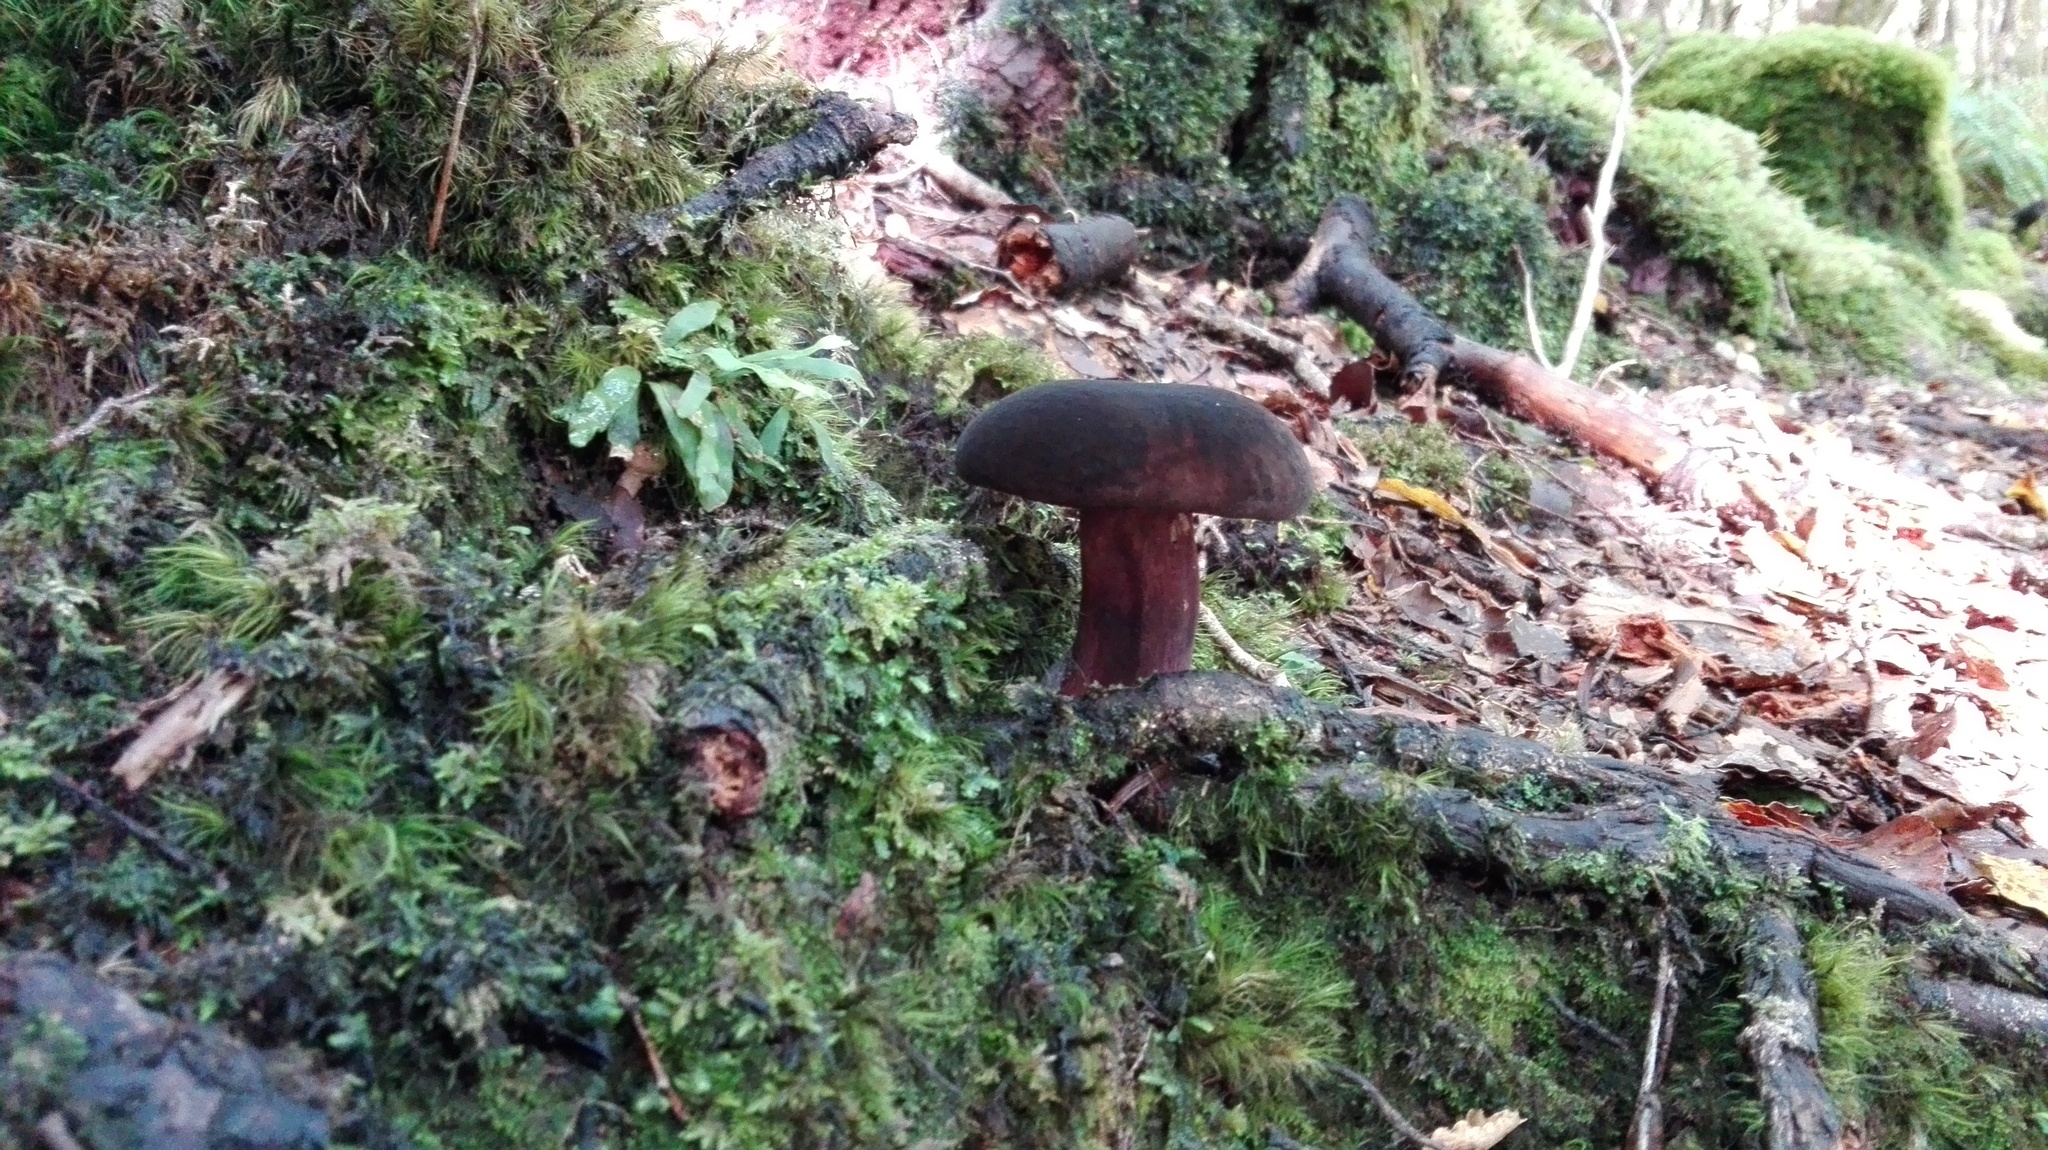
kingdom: Fungi
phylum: Basidiomycota
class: Agaricomycetes
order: Boletales
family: Boletaceae
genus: Porphyrellus
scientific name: Porphyrellus formosus
